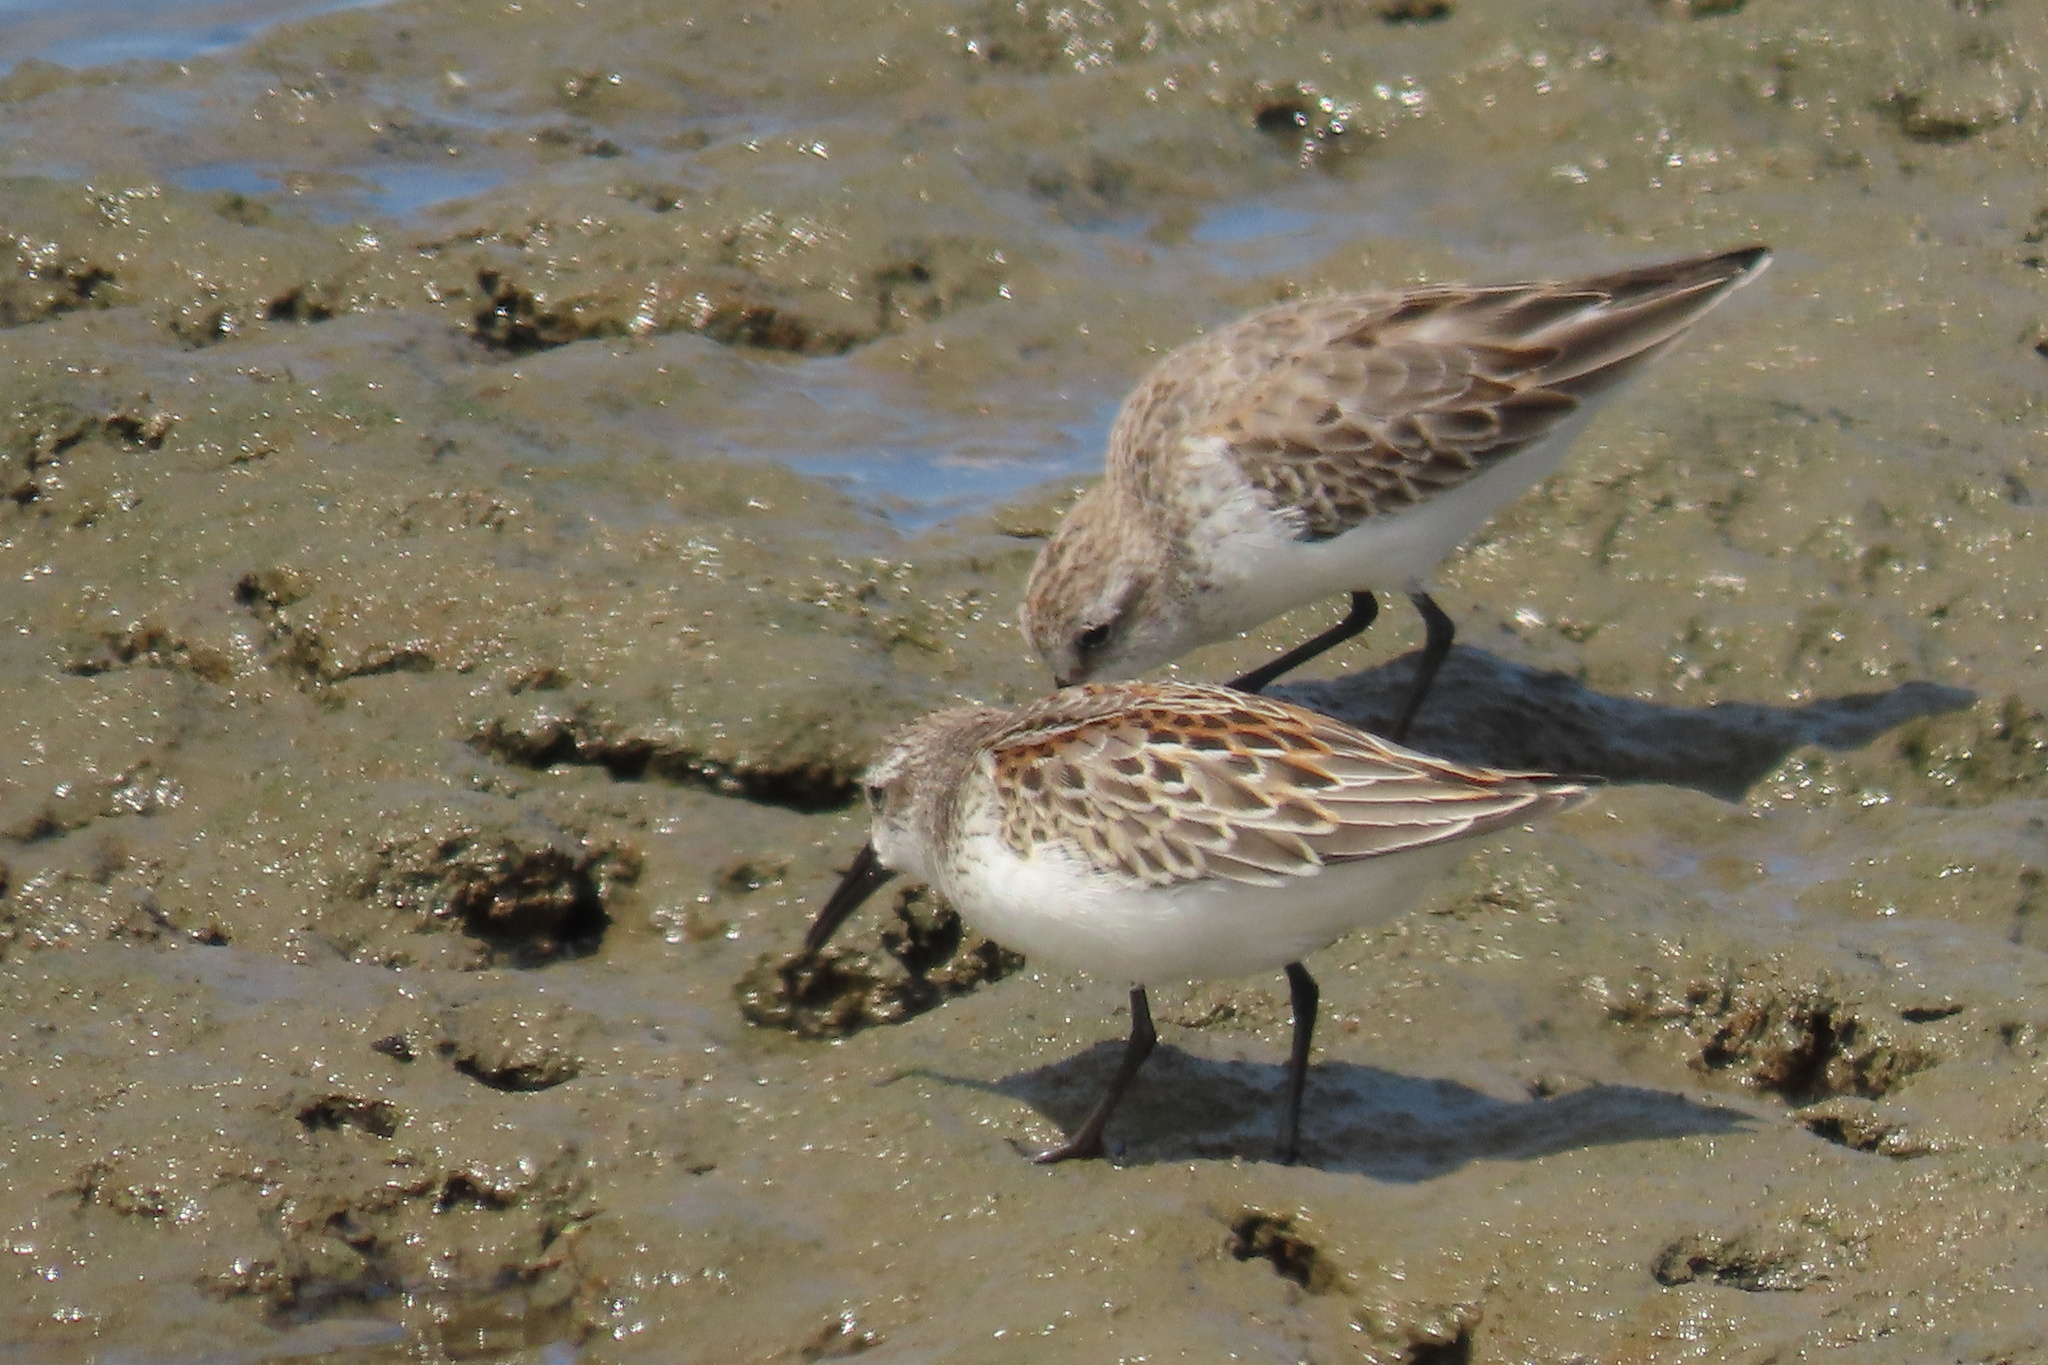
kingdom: Animalia
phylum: Chordata
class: Aves
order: Charadriiformes
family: Scolopacidae
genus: Calidris
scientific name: Calidris mauri
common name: Western sandpiper
